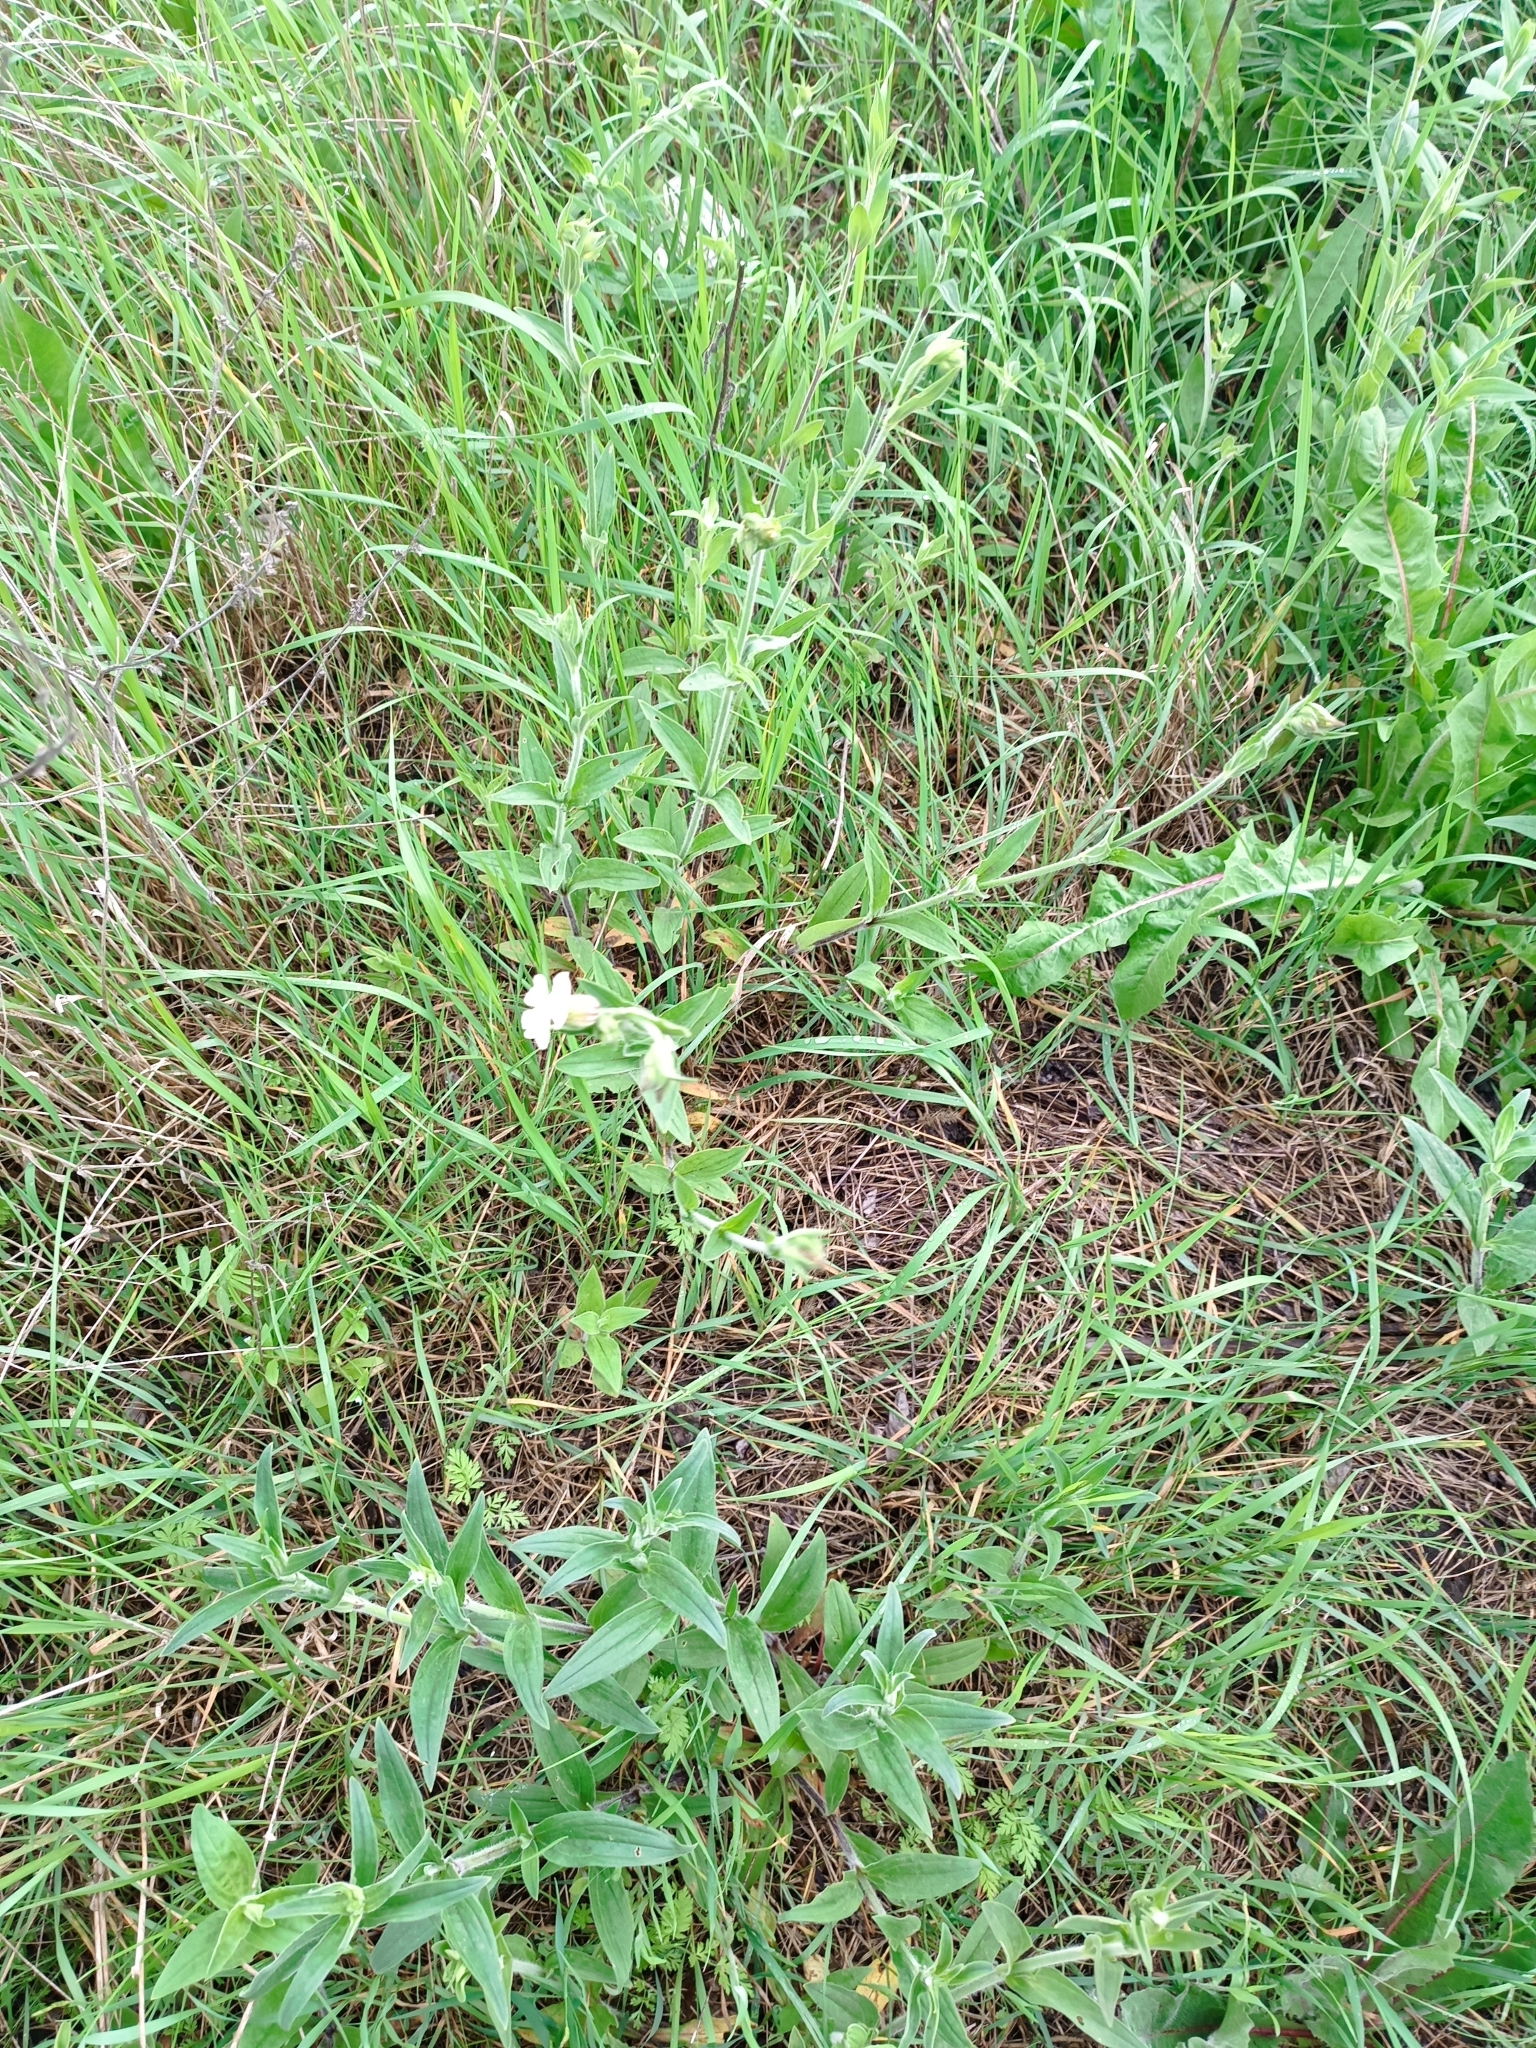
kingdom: Plantae
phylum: Tracheophyta
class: Magnoliopsida
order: Caryophyllales
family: Caryophyllaceae
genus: Silene
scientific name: Silene latifolia
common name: White campion
